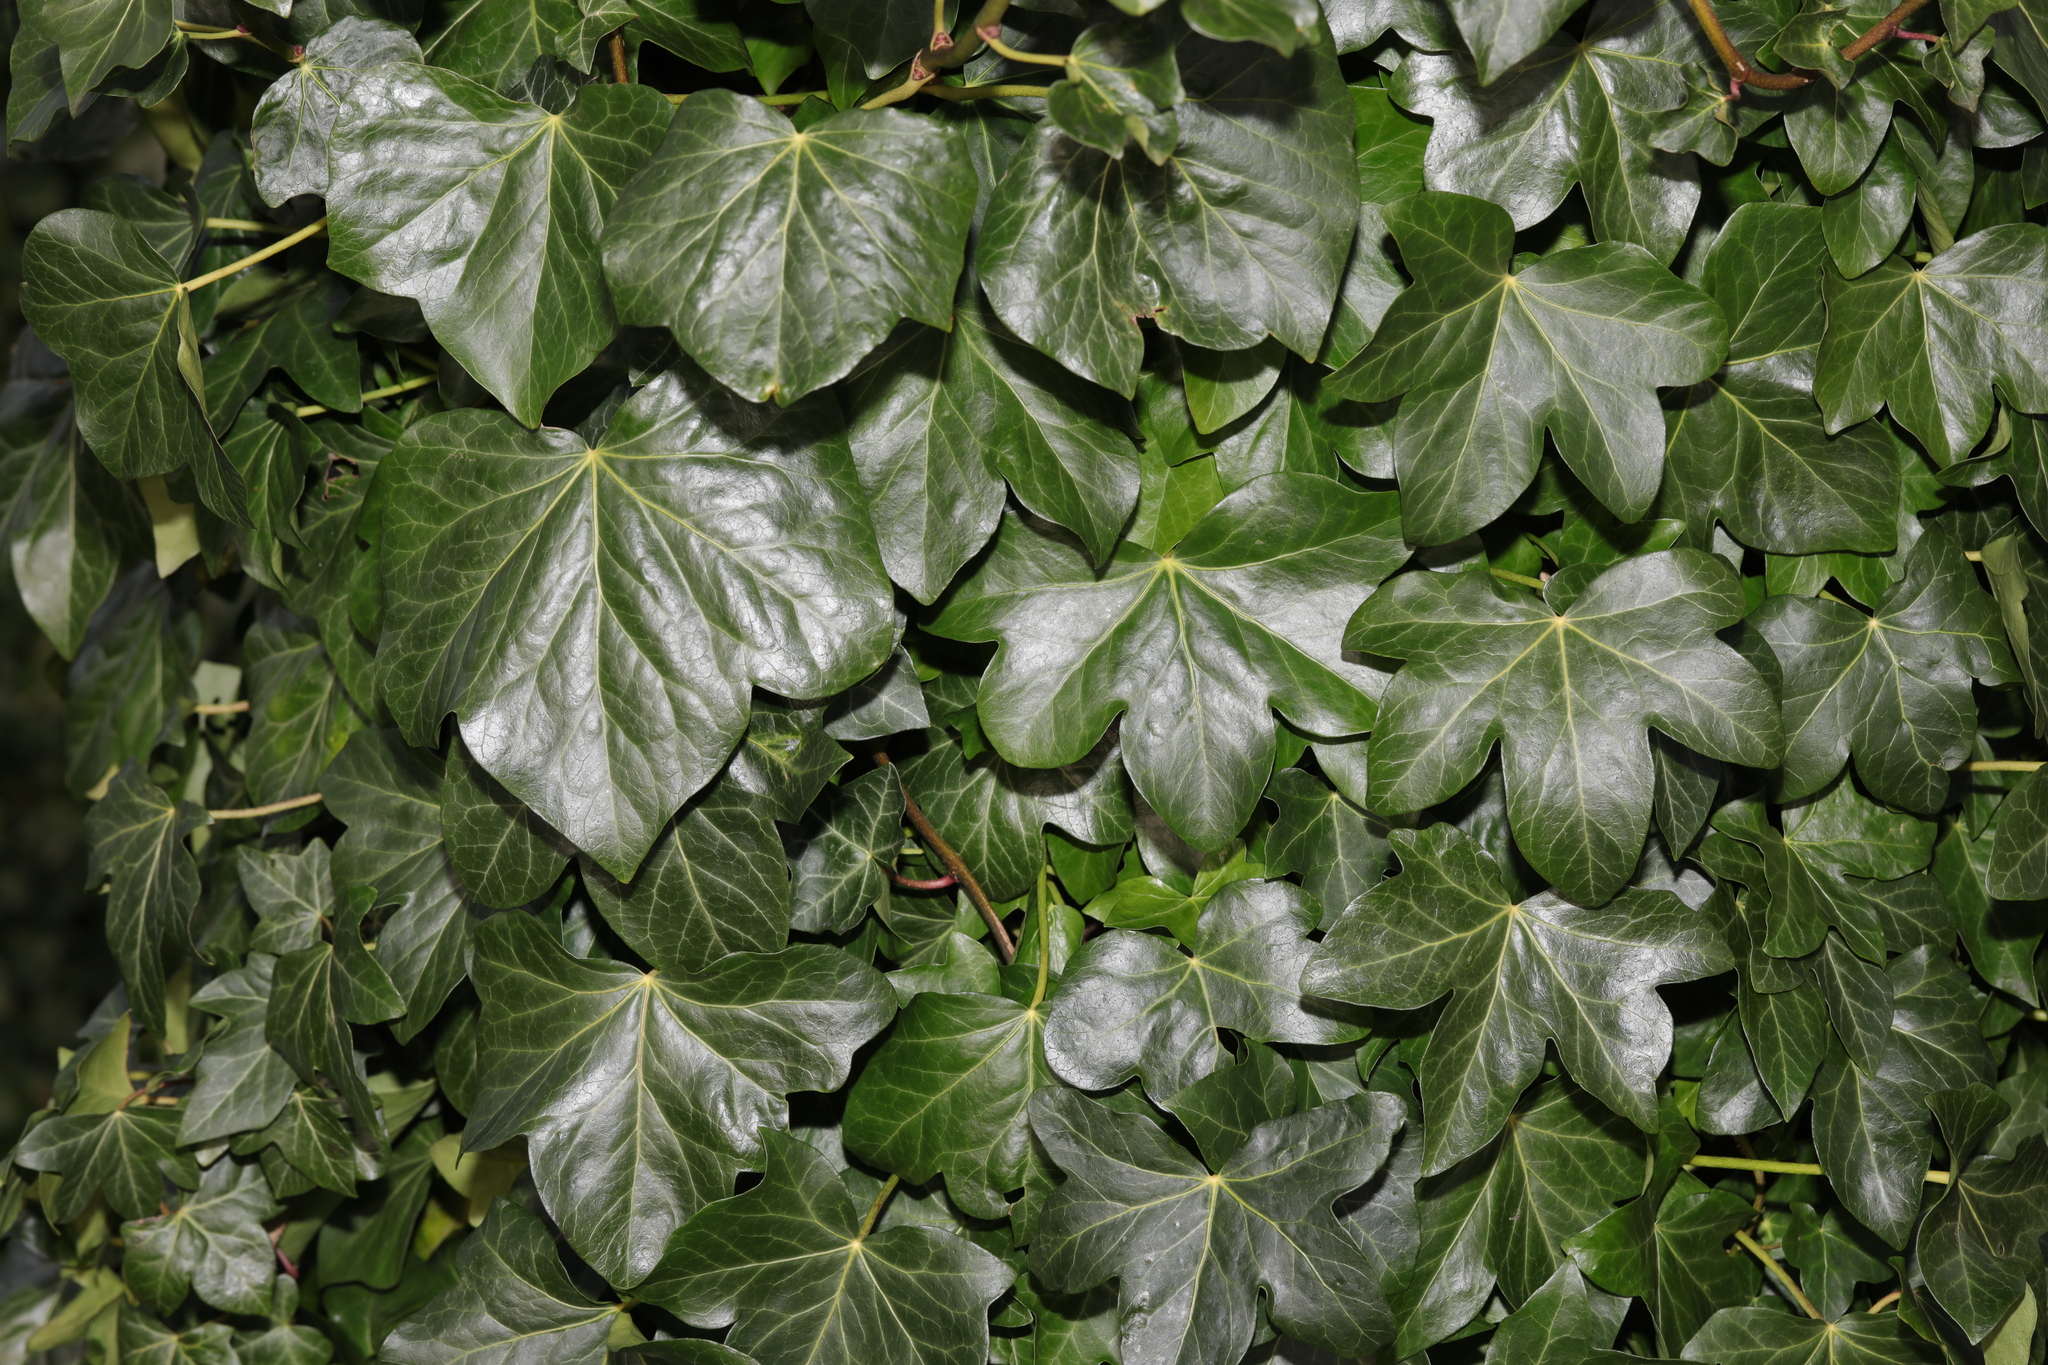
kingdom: Plantae
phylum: Tracheophyta
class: Magnoliopsida
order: Apiales
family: Araliaceae
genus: Hedera
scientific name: Hedera helix
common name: Ivy
